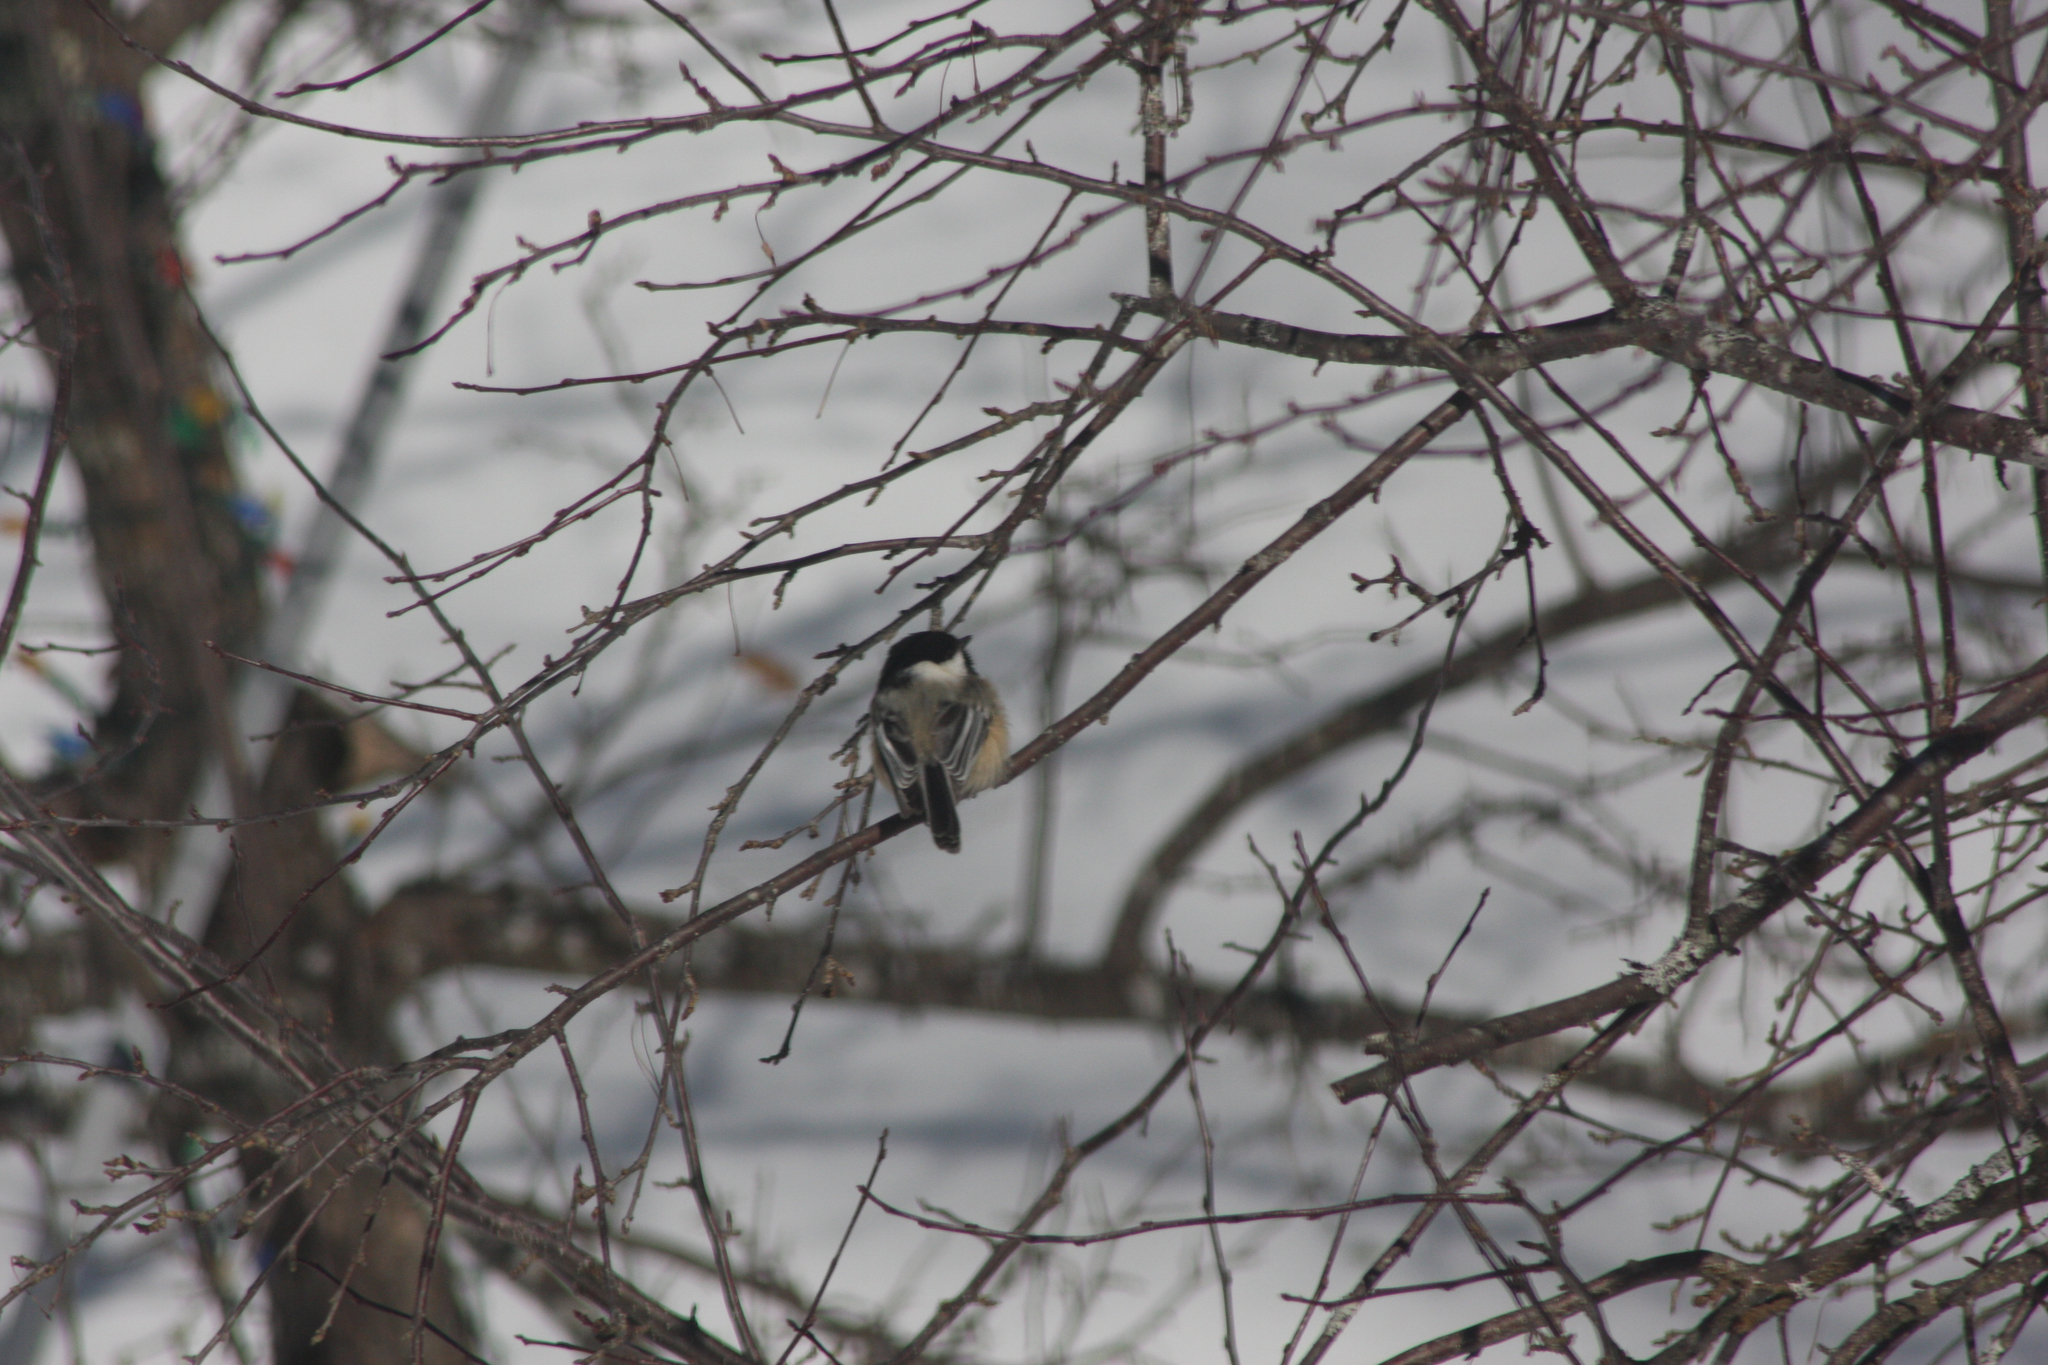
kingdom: Animalia
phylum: Chordata
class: Aves
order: Passeriformes
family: Paridae
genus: Poecile
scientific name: Poecile atricapillus
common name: Black-capped chickadee
